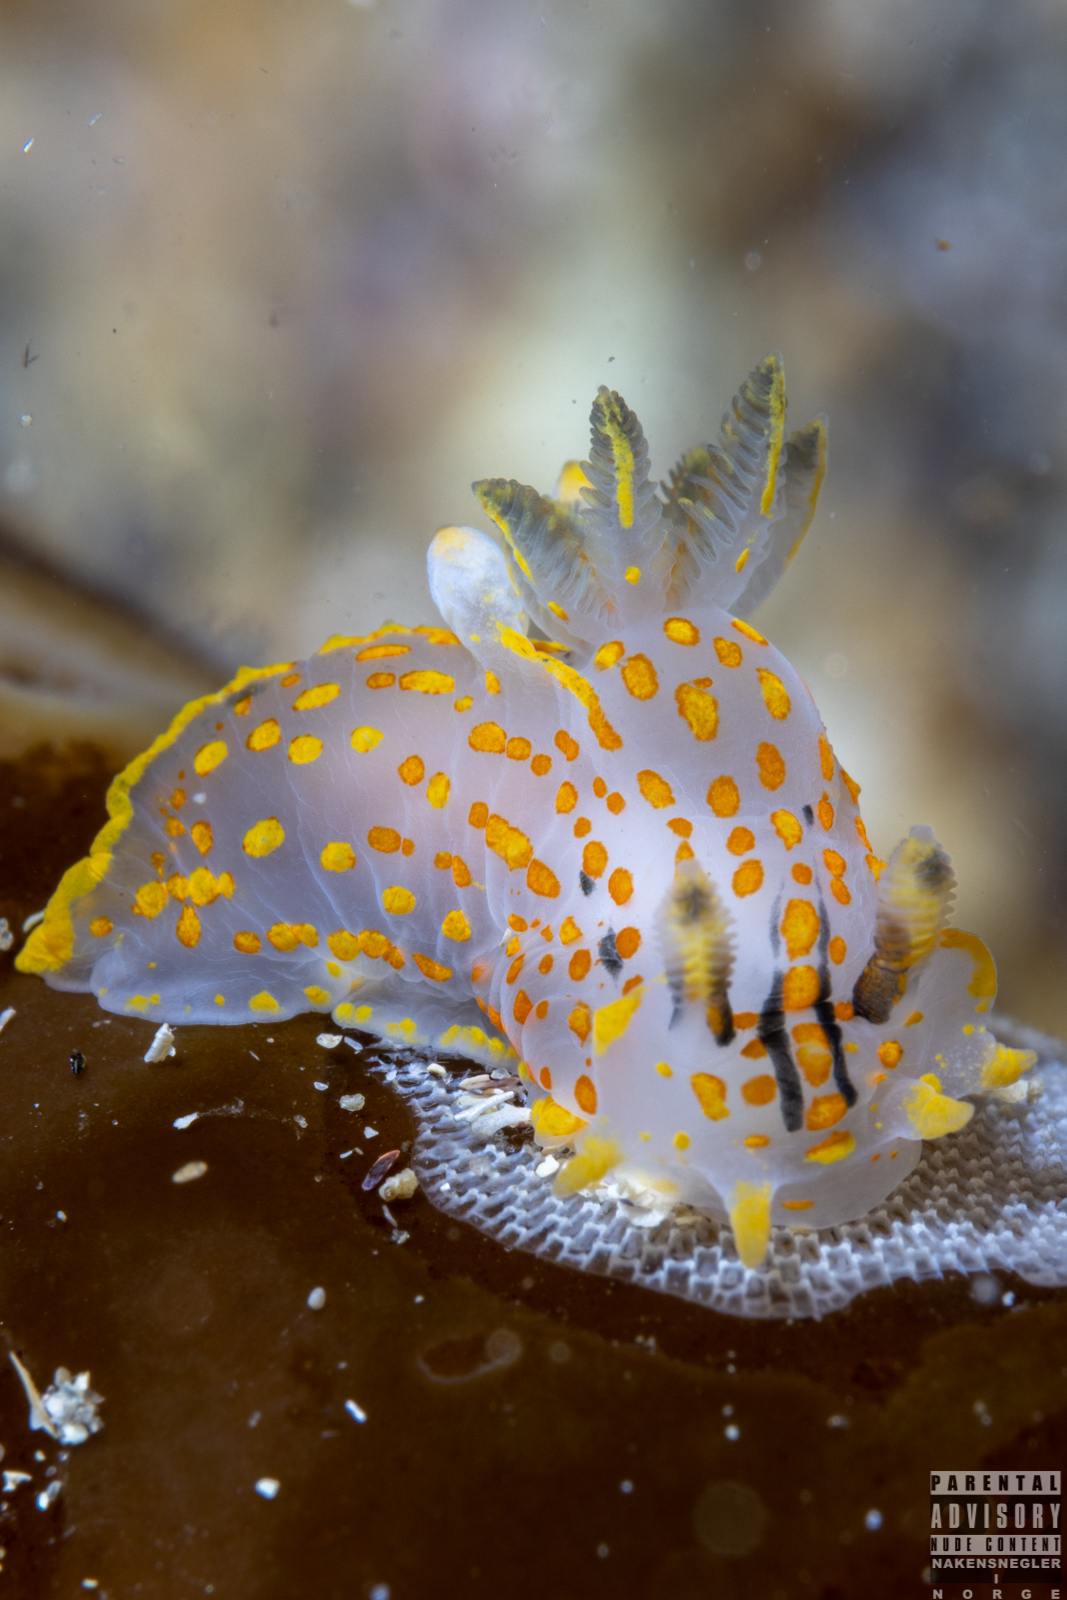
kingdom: Animalia
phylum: Mollusca
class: Gastropoda
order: Nudibranchia
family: Polyceridae
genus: Polycera
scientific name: Polycera quadrilineata
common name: Four-striped polycera
